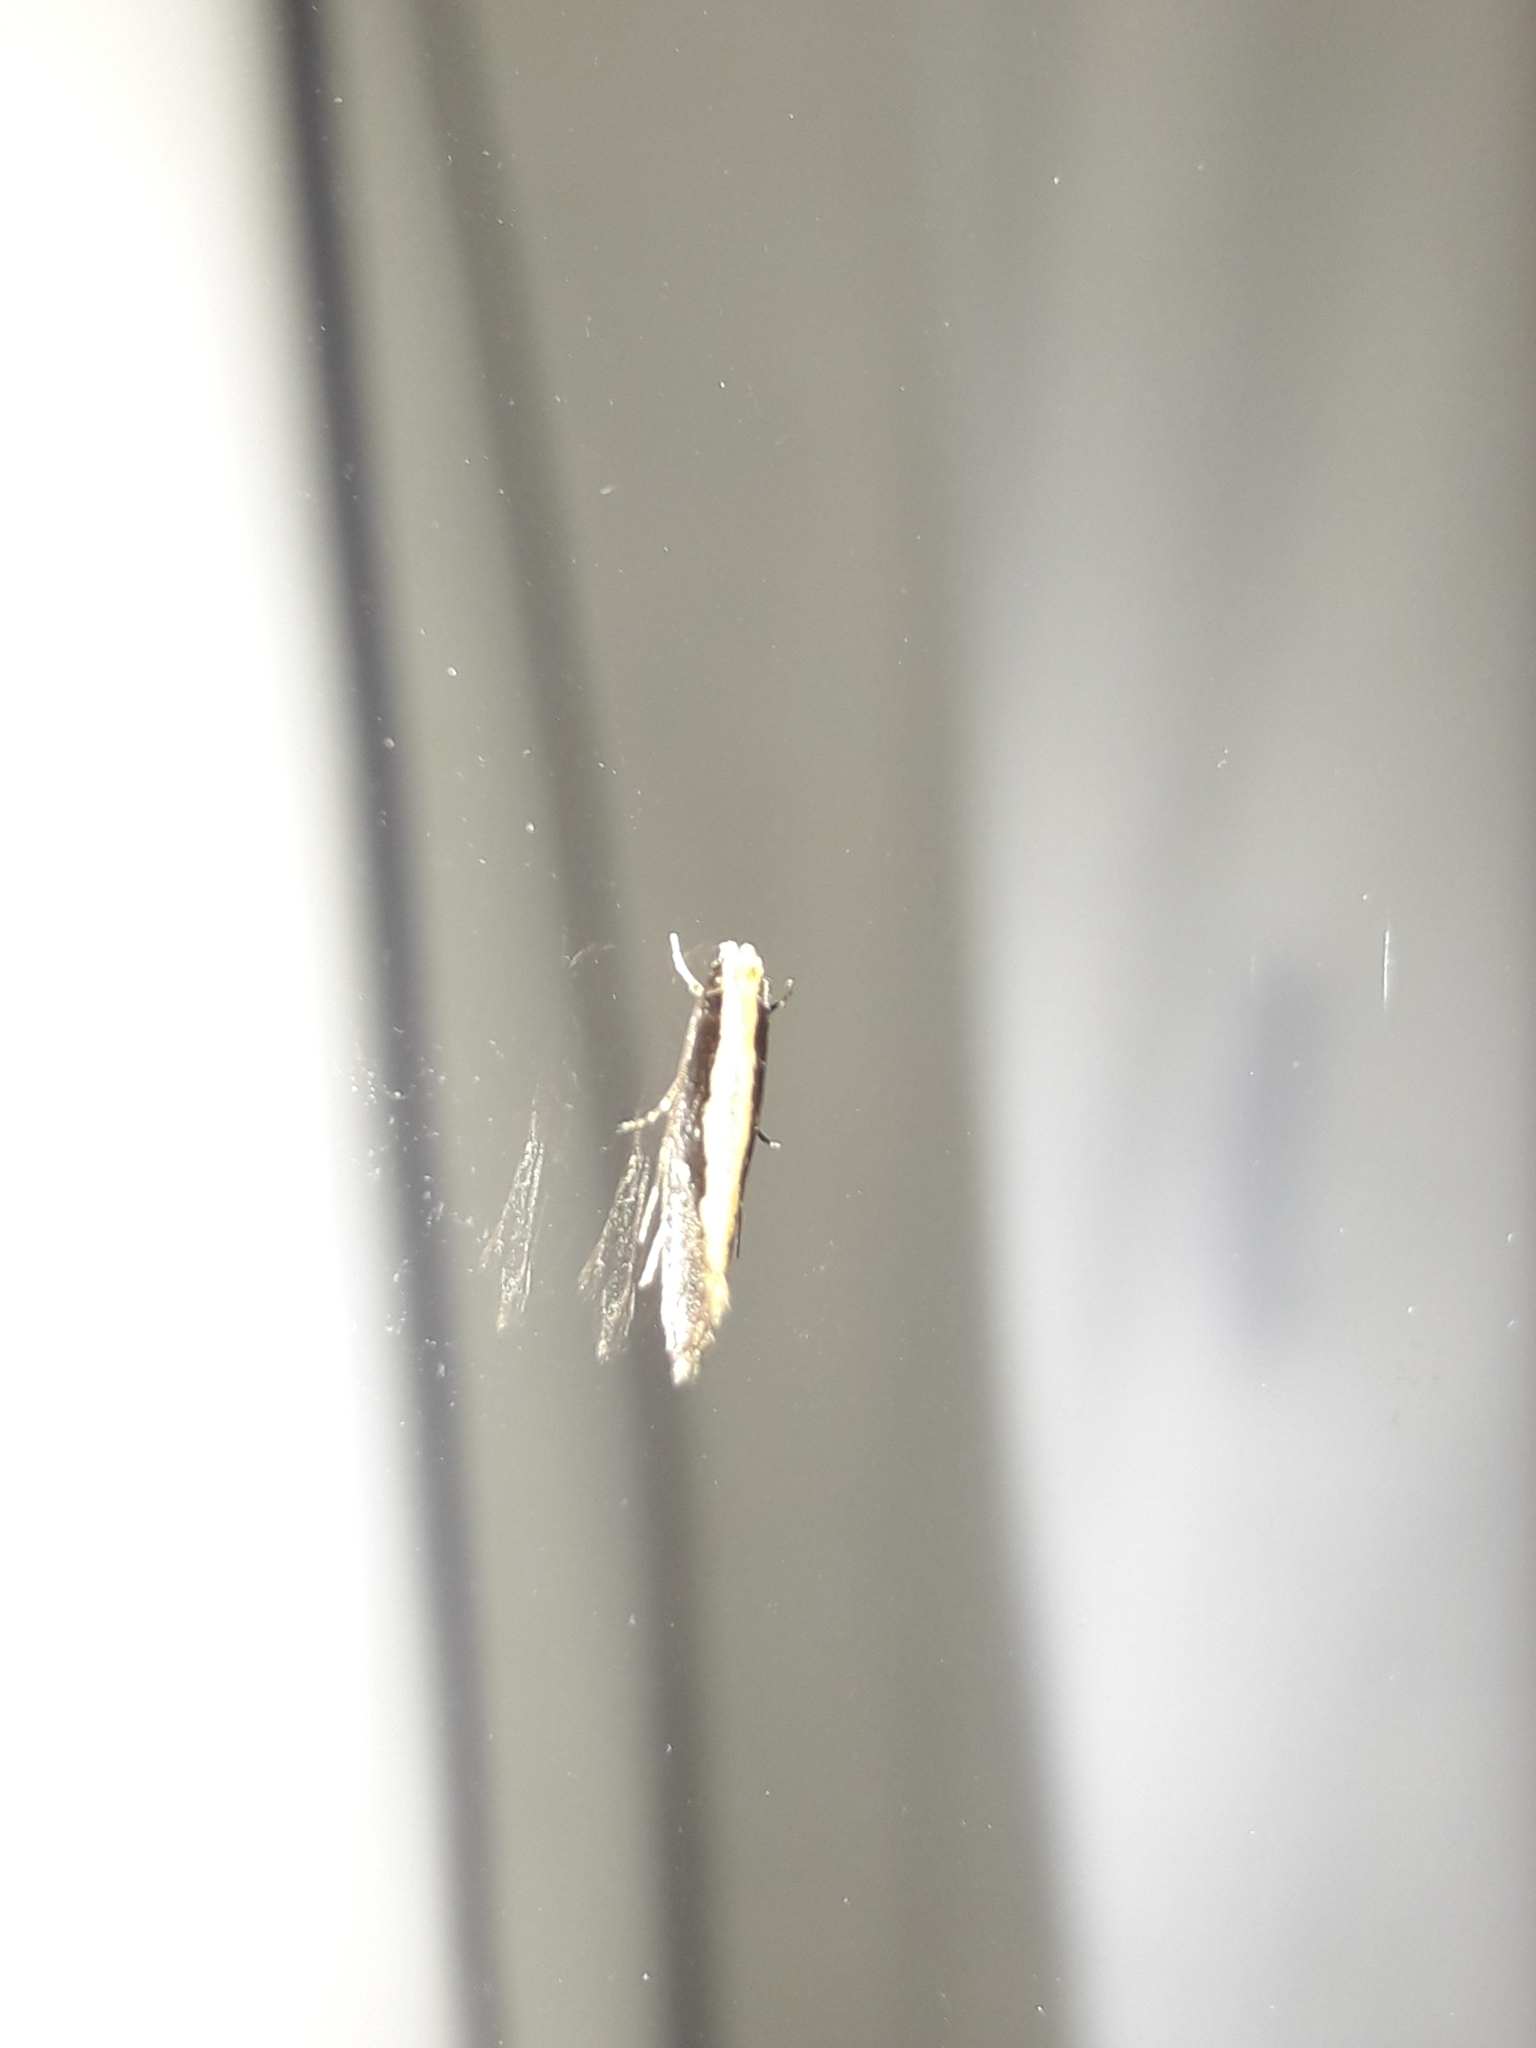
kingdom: Animalia
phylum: Arthropoda
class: Insecta
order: Lepidoptera
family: Tineidae
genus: Monopis
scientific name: Monopis ethelella
